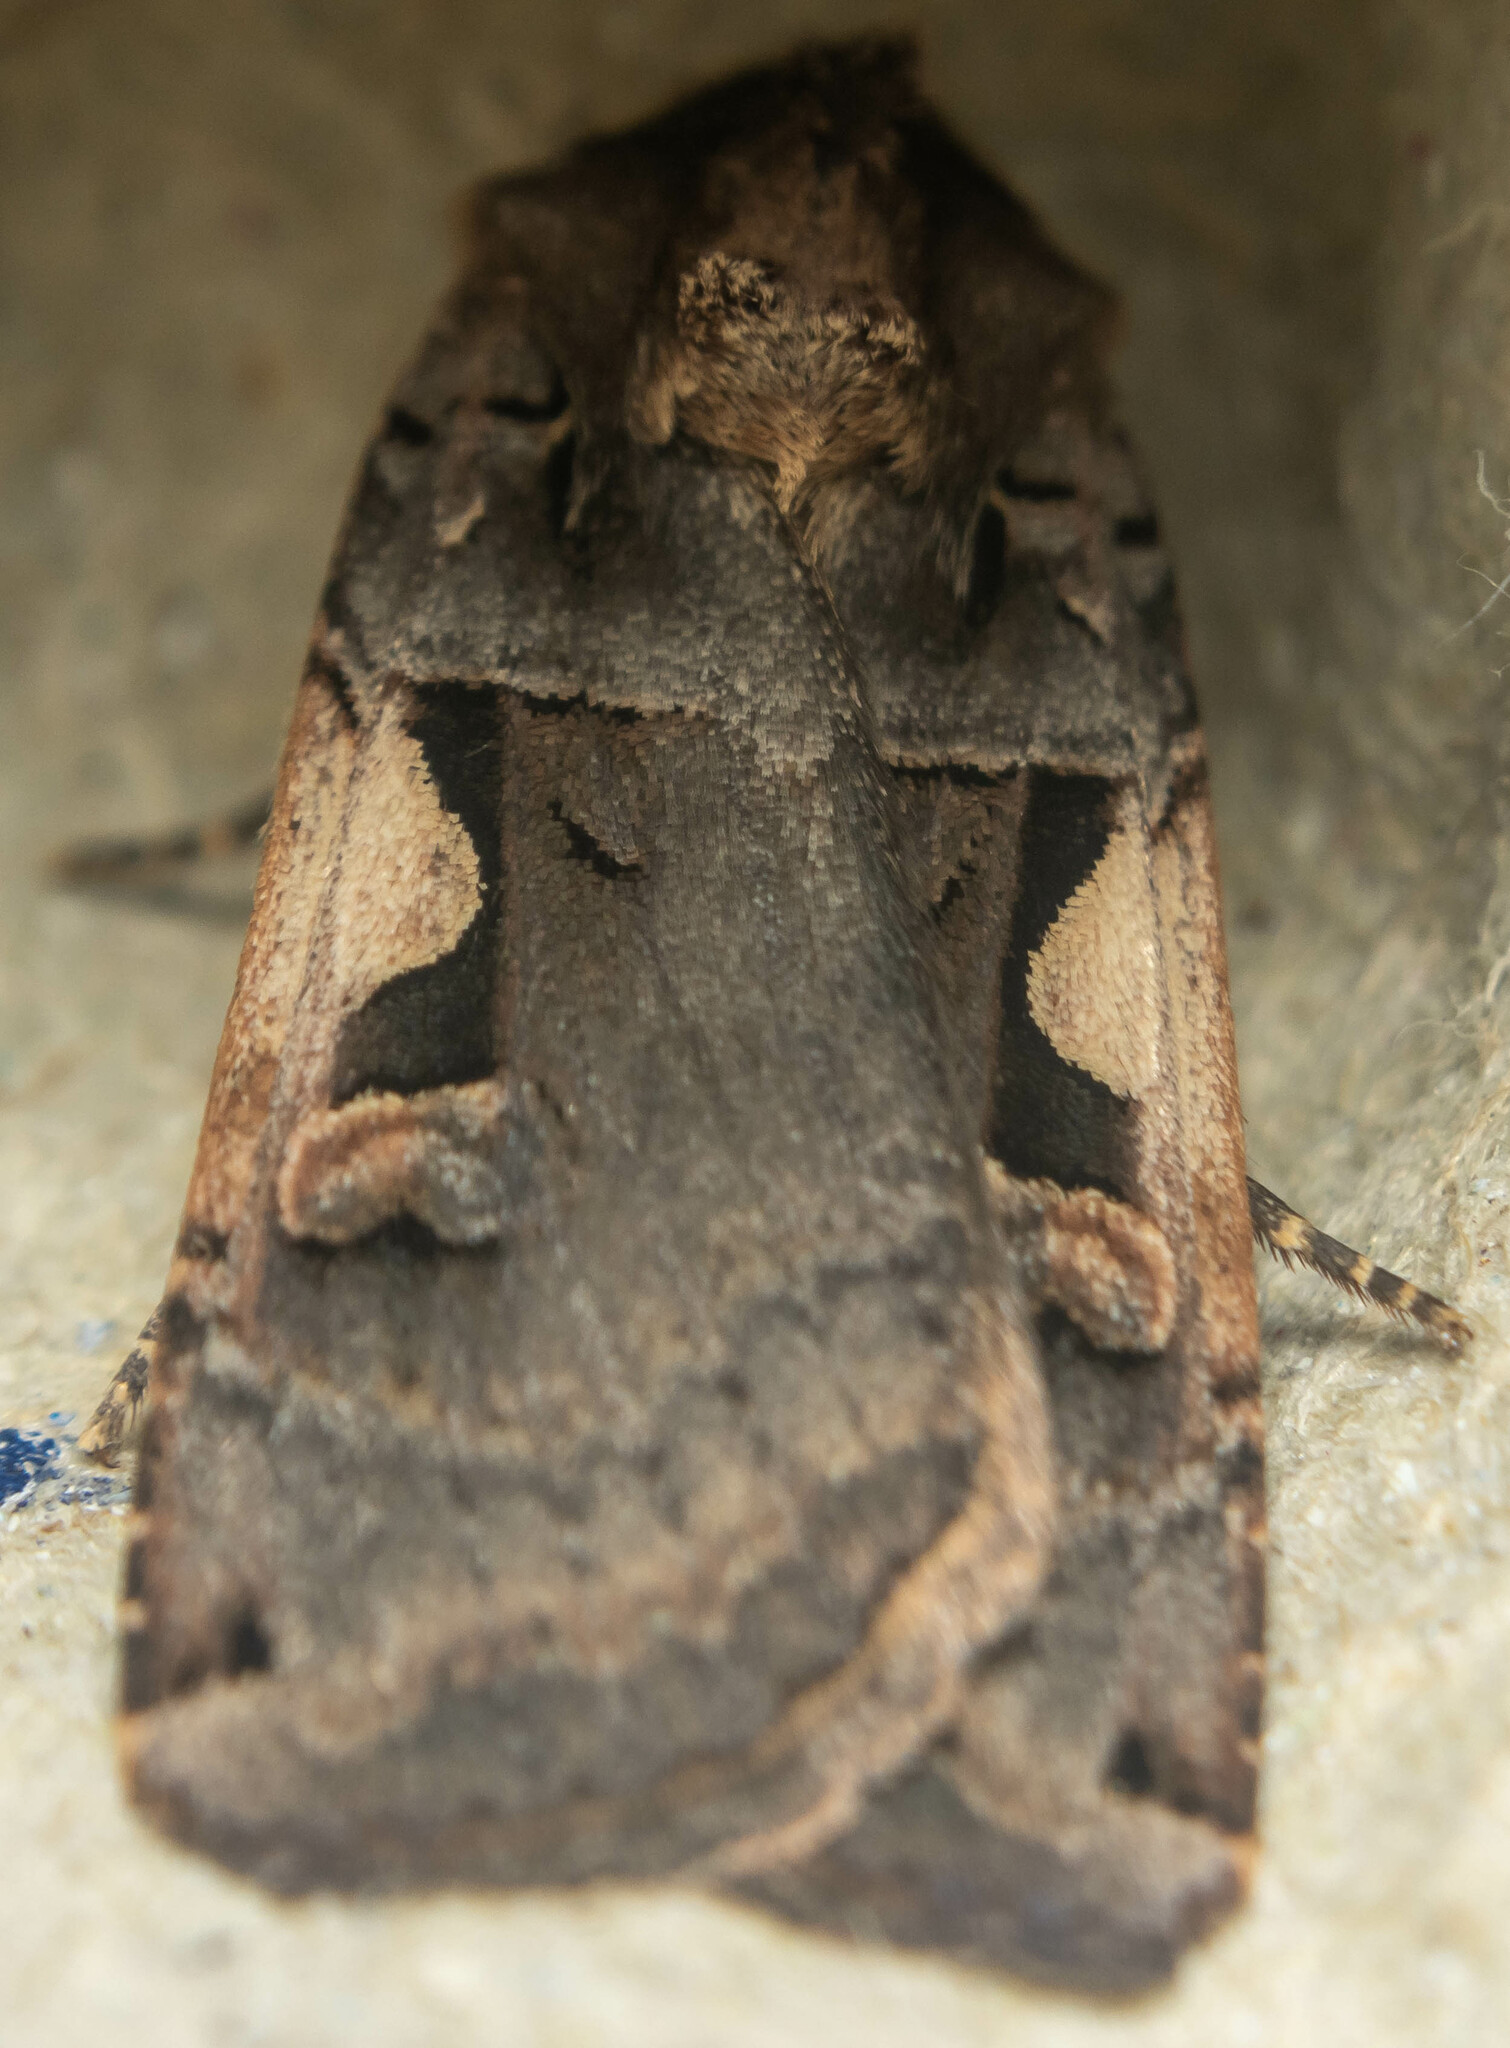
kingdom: Animalia
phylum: Arthropoda
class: Insecta
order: Lepidoptera
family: Noctuidae
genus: Xestia
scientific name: Xestia c-nigrum
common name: Setaceous hebrew character
